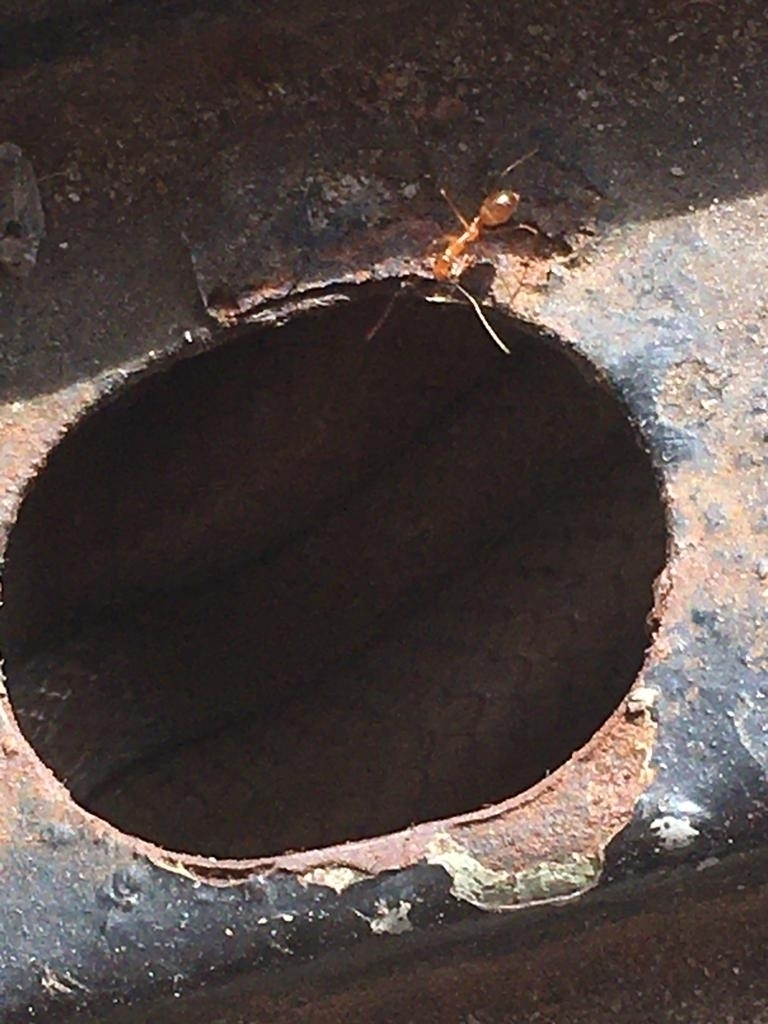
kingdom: Animalia
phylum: Arthropoda
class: Insecta
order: Hymenoptera
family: Formicidae
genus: Anoplolepis
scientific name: Anoplolepis gracilipes
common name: Ant
